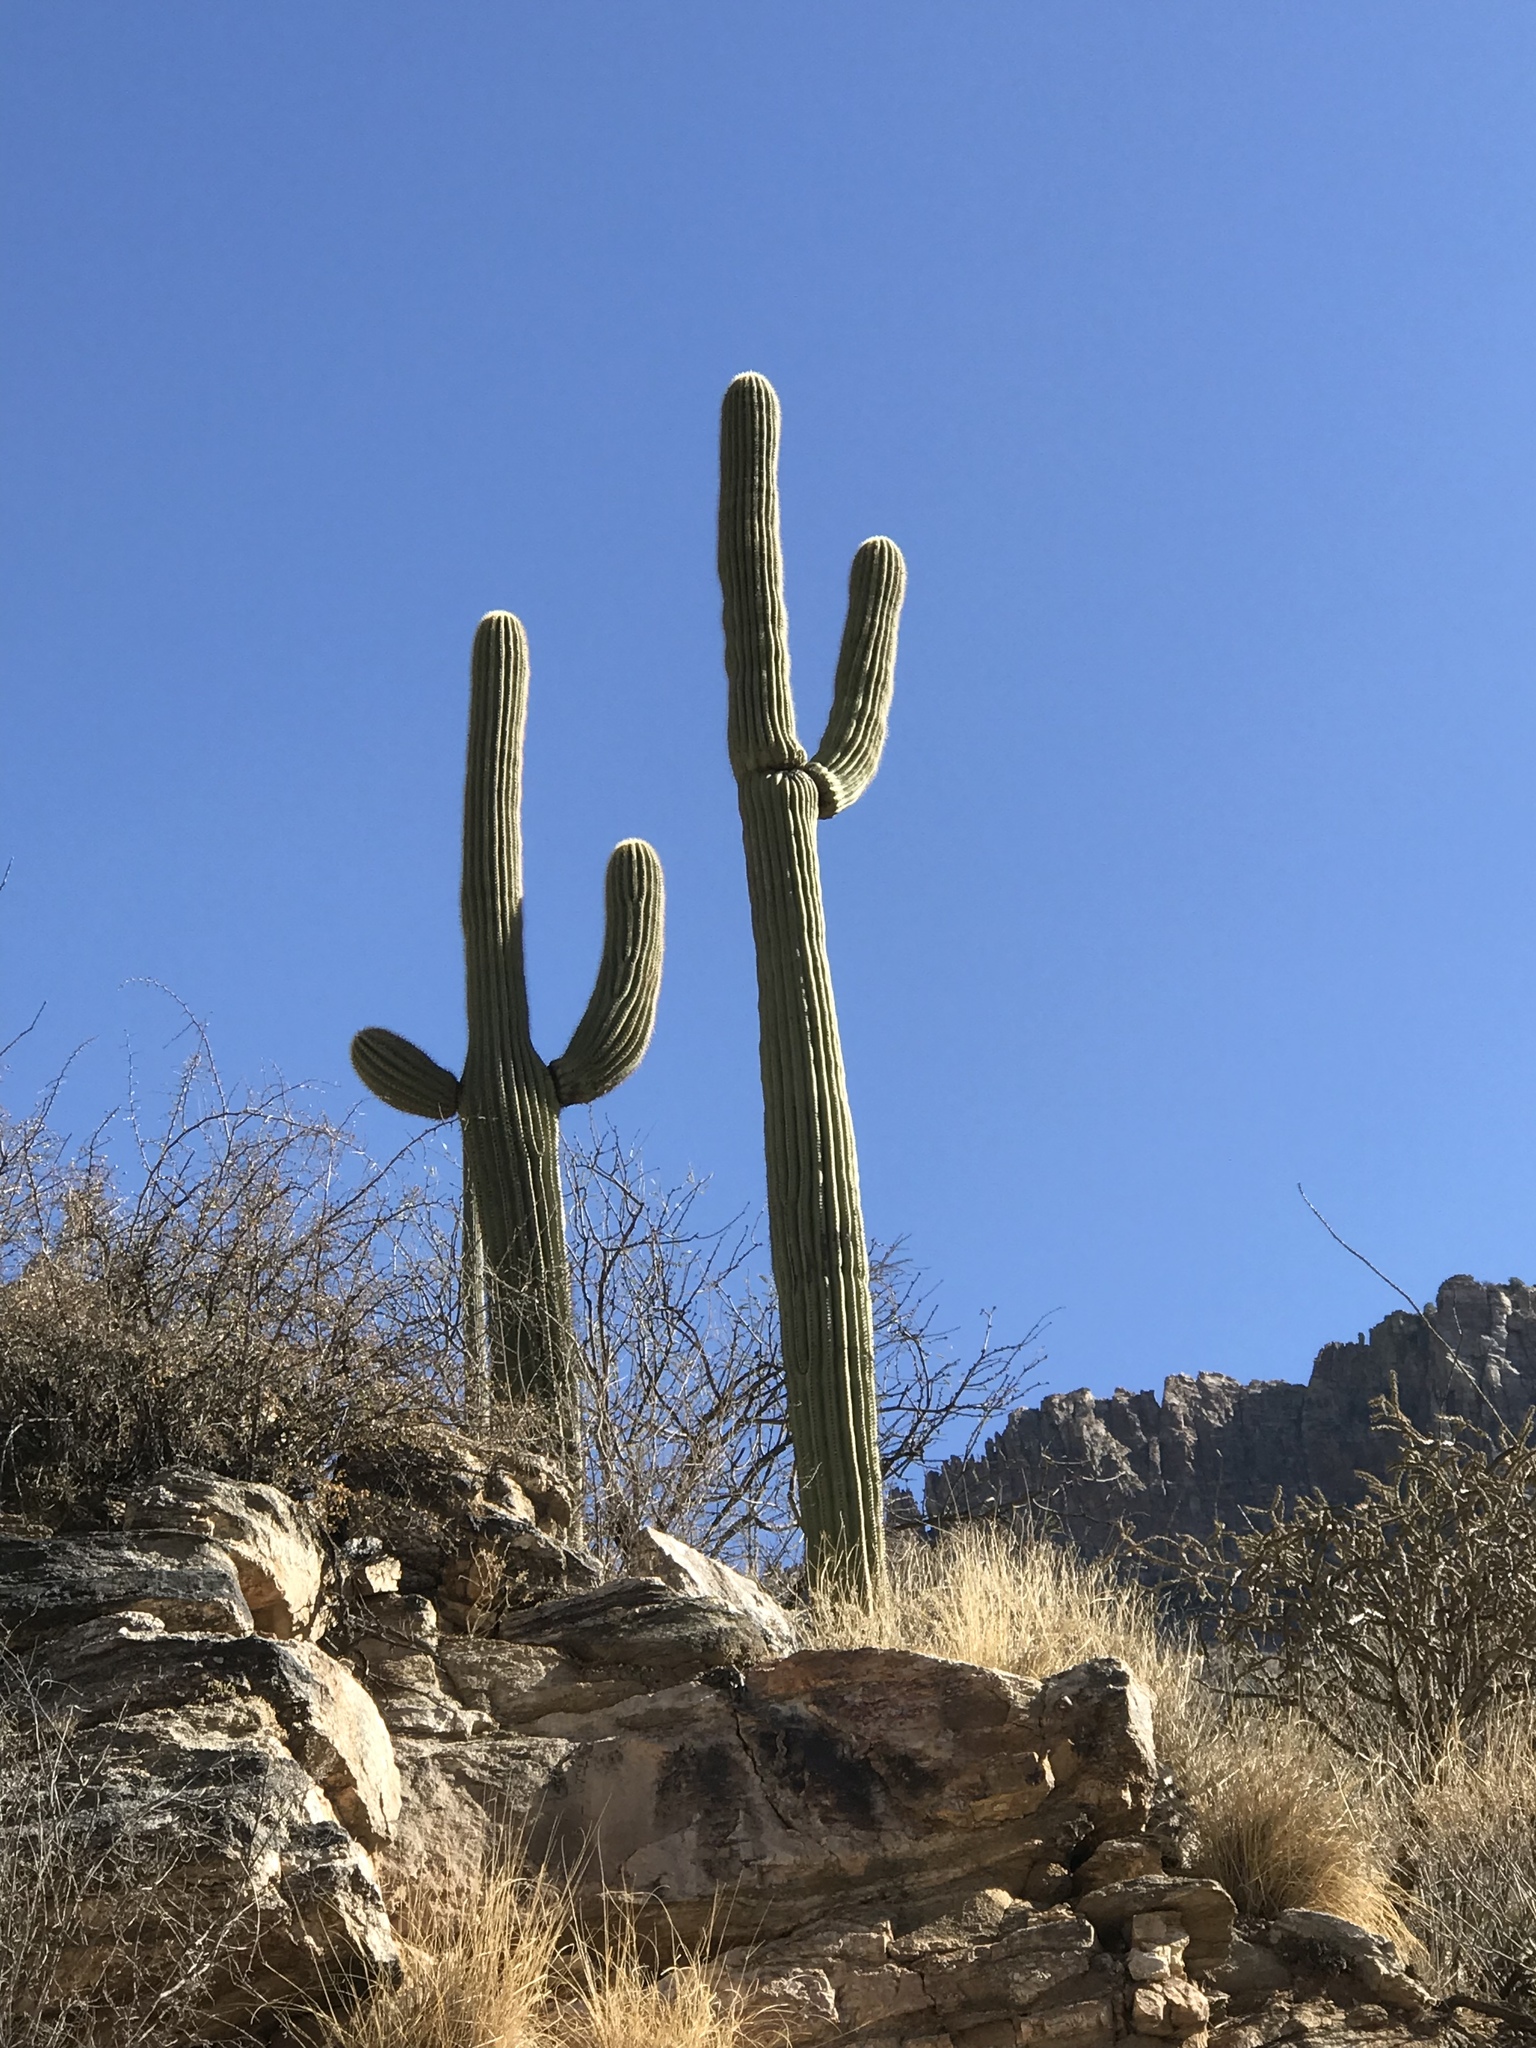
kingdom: Plantae
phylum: Tracheophyta
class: Magnoliopsida
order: Caryophyllales
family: Cactaceae
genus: Carnegiea
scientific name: Carnegiea gigantea
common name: Saguaro
